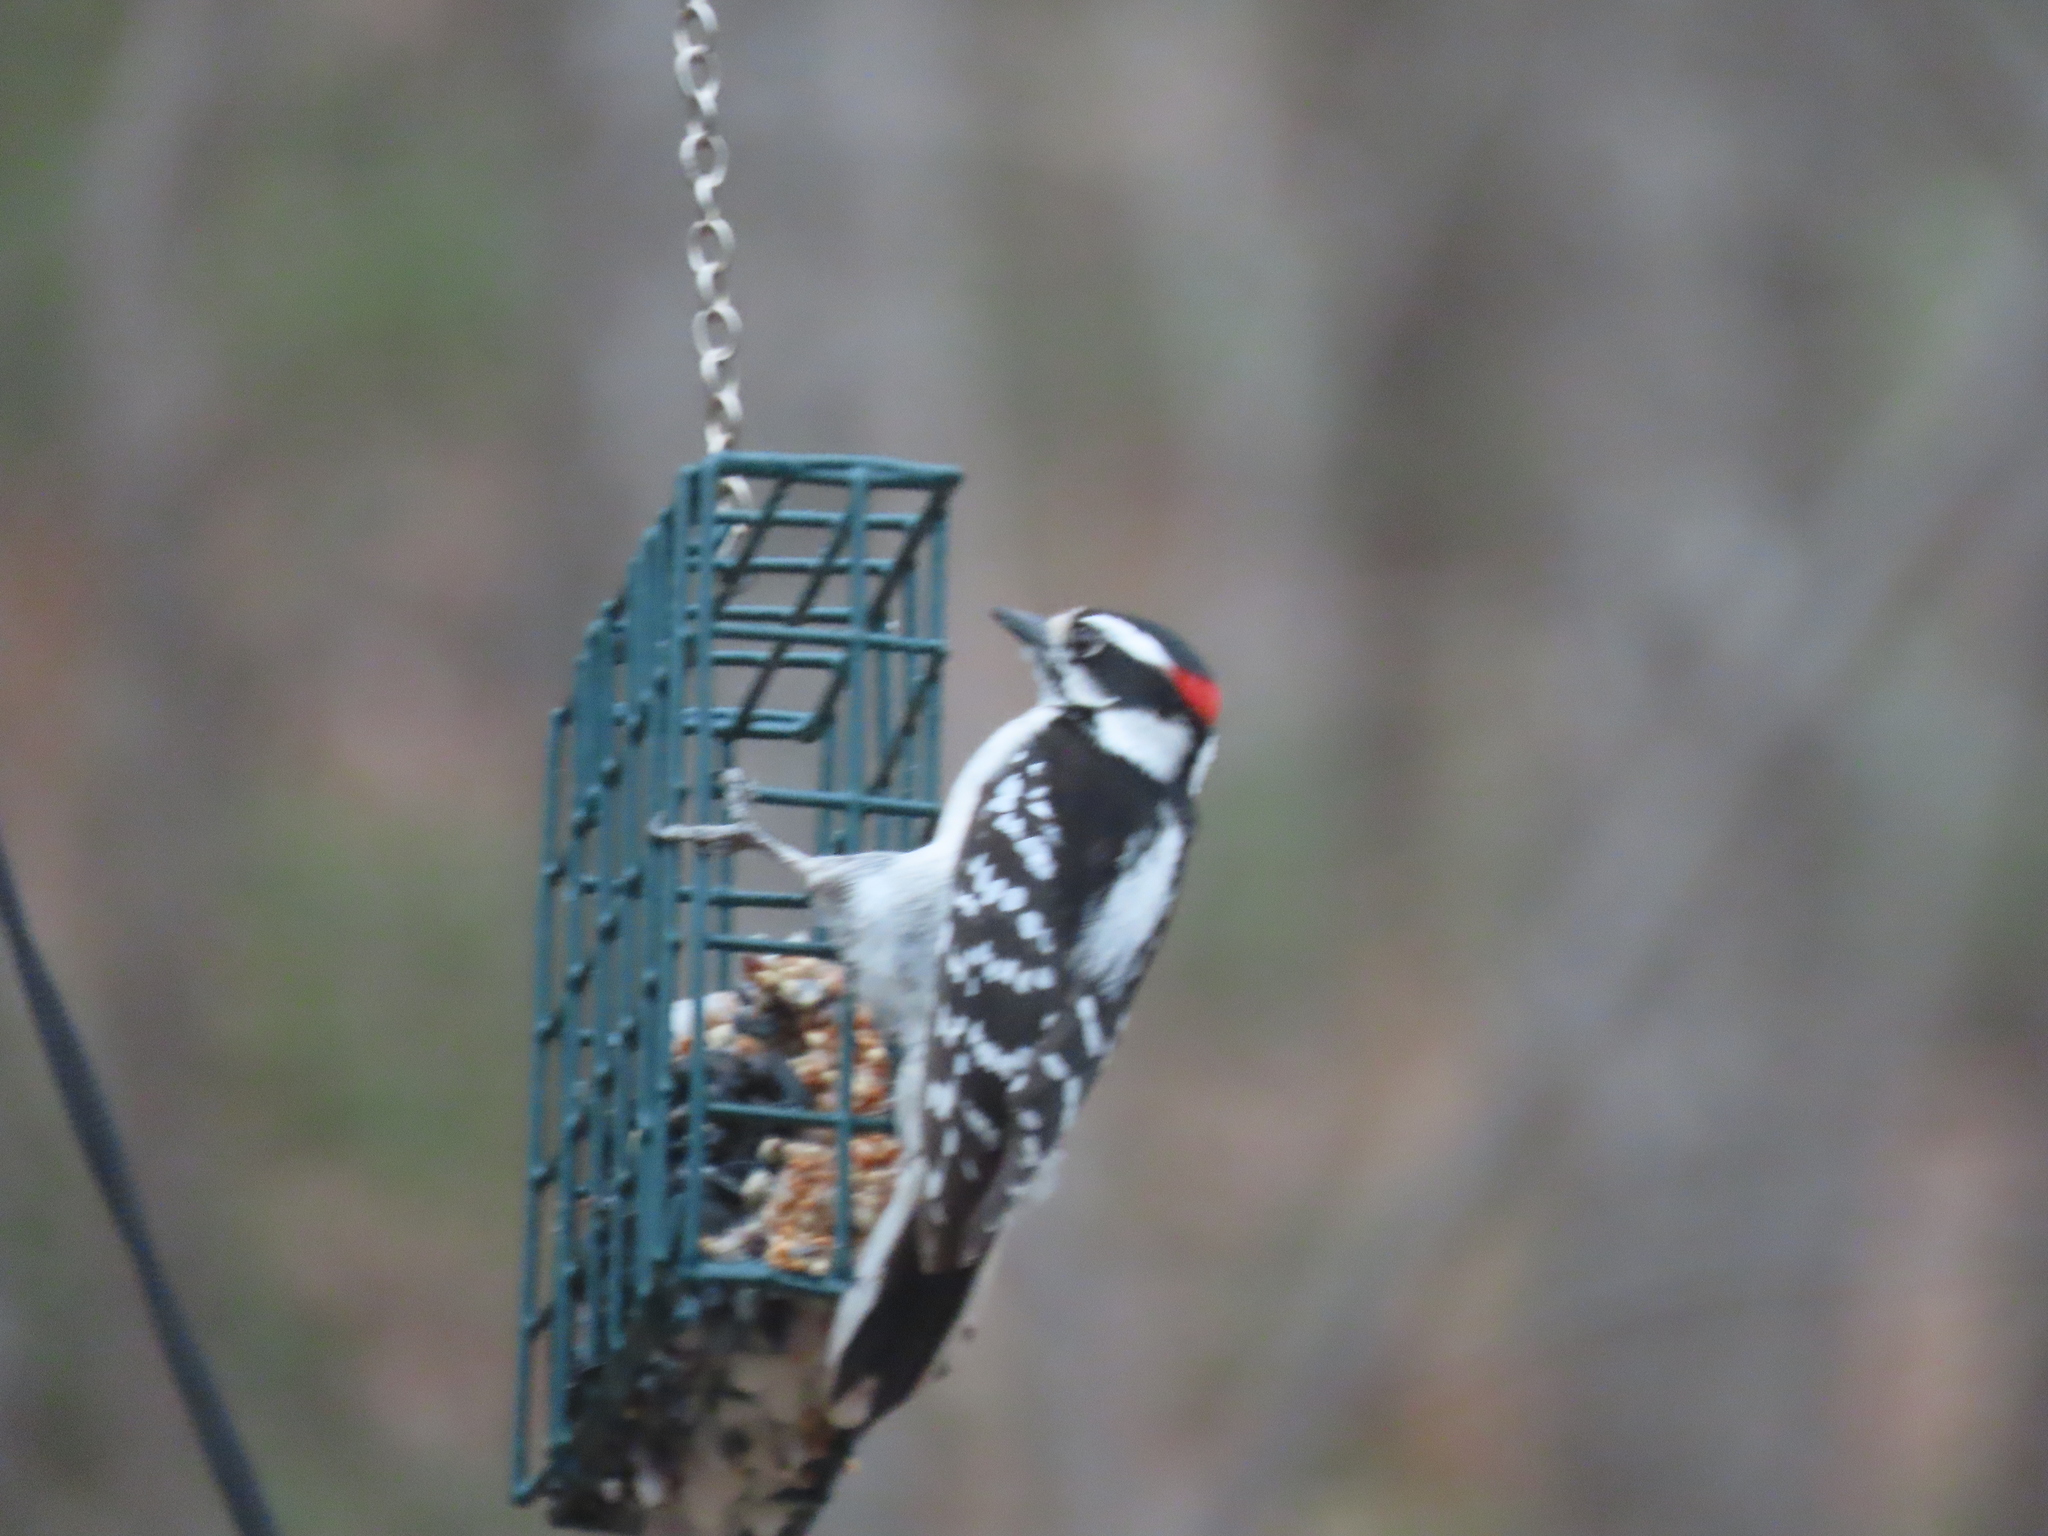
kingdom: Animalia
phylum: Chordata
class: Aves
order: Piciformes
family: Picidae
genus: Dryobates
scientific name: Dryobates pubescens
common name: Downy woodpecker
